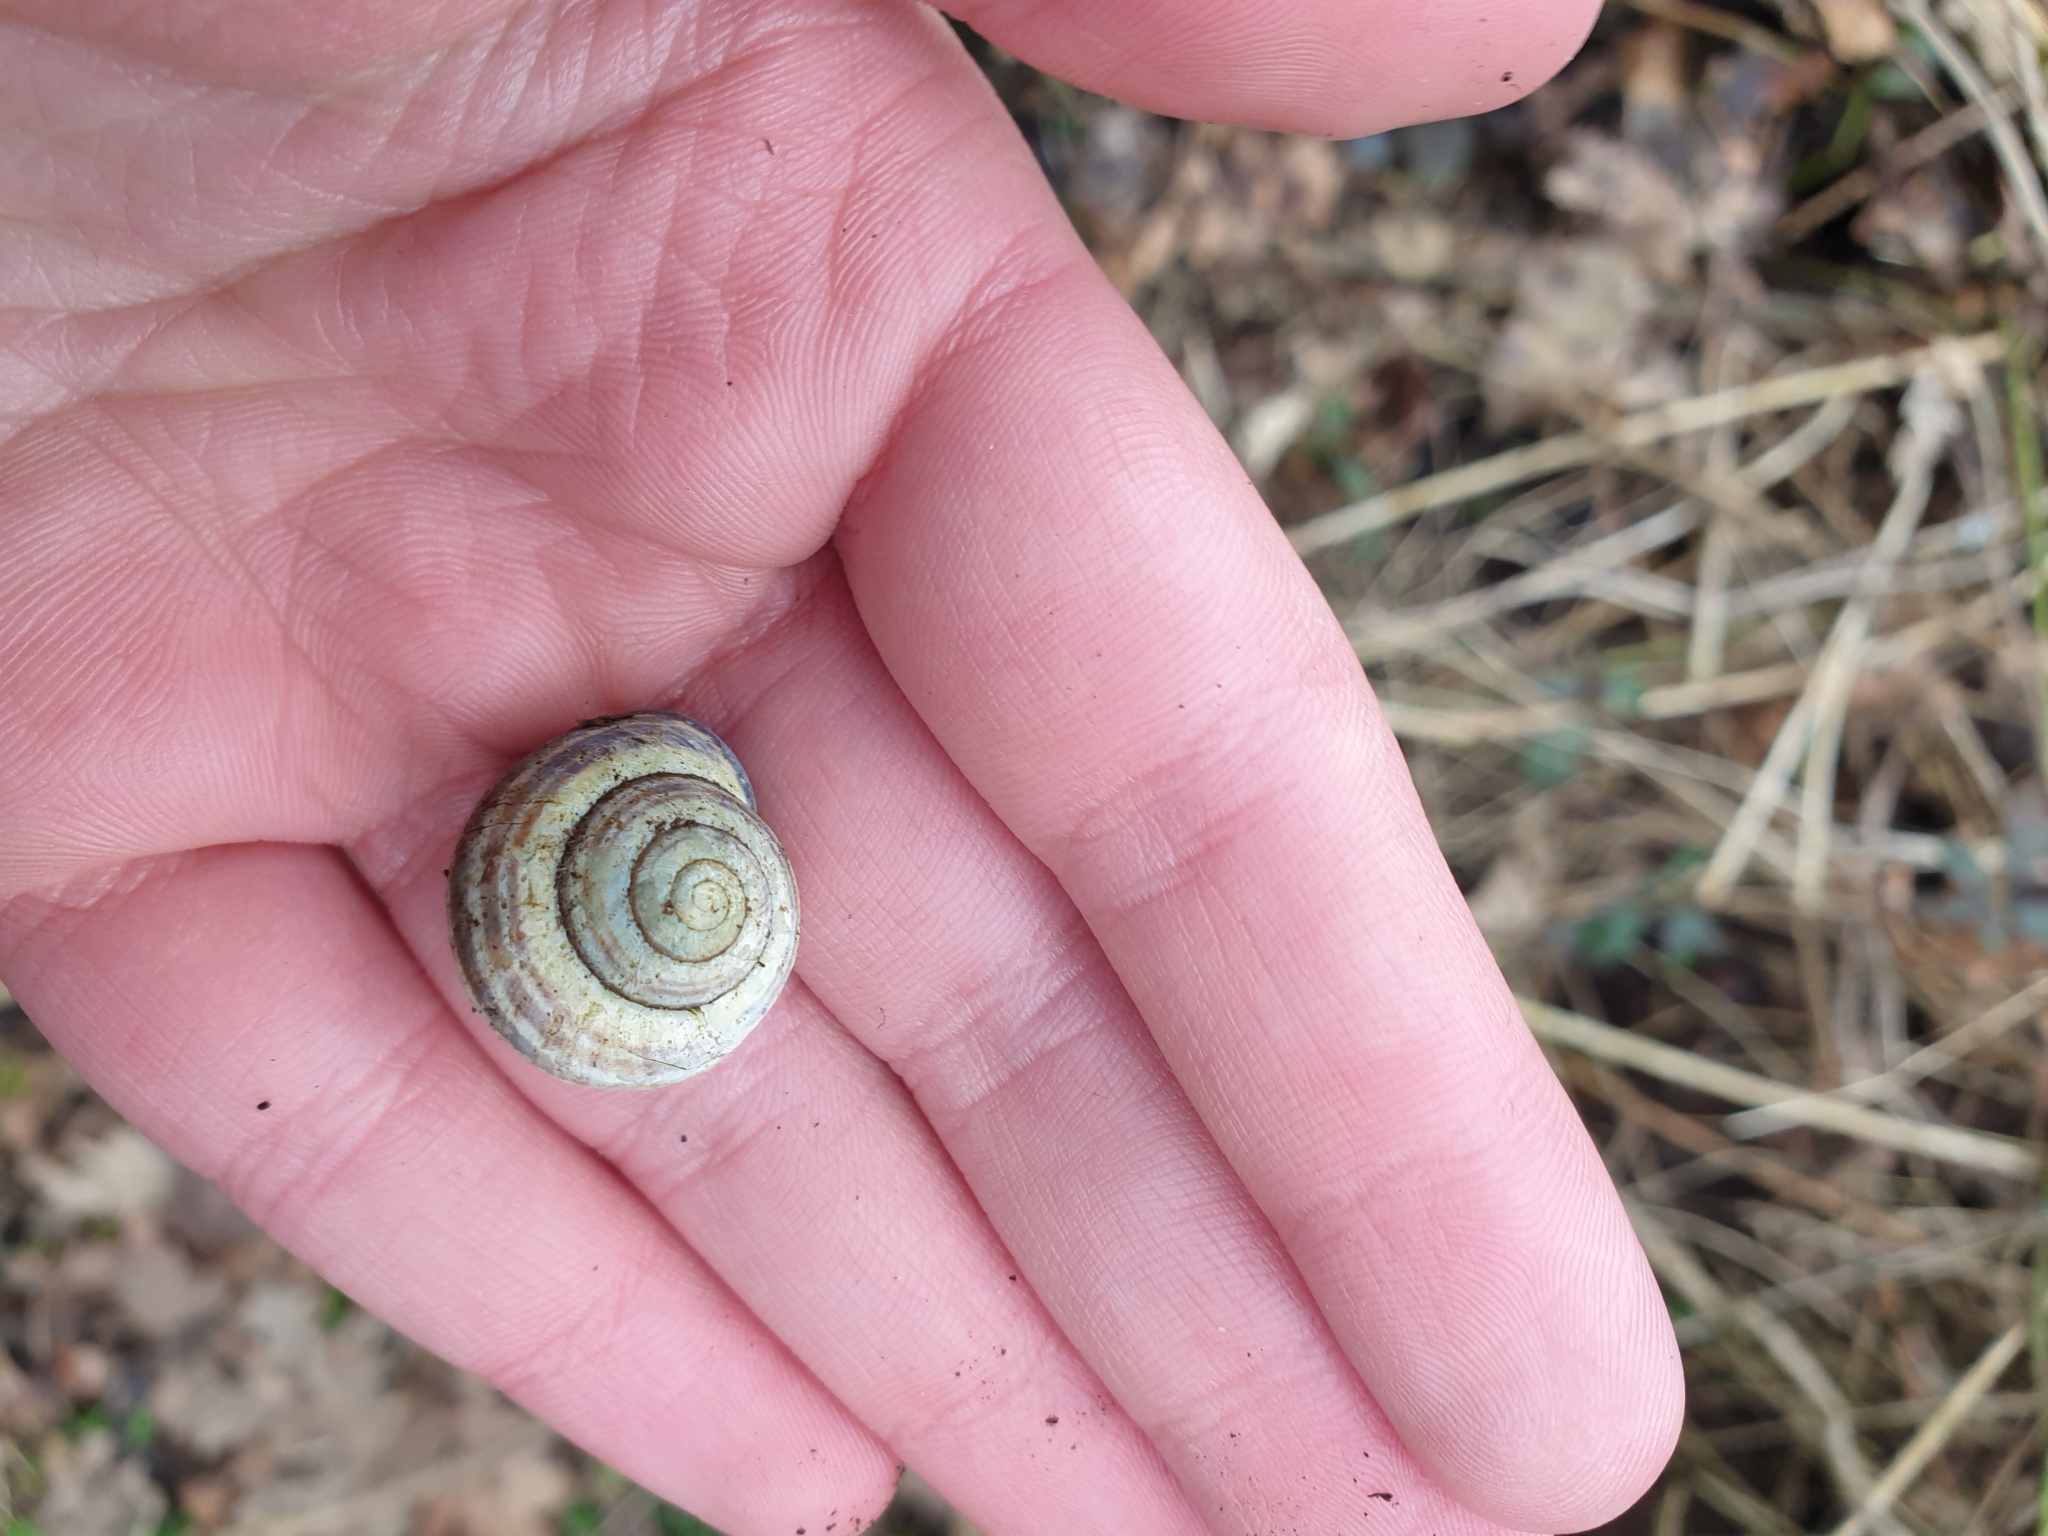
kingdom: Animalia
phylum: Mollusca
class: Gastropoda
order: Stylommatophora
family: Helicidae
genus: Cepaea
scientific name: Cepaea nemoralis
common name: Grovesnail
